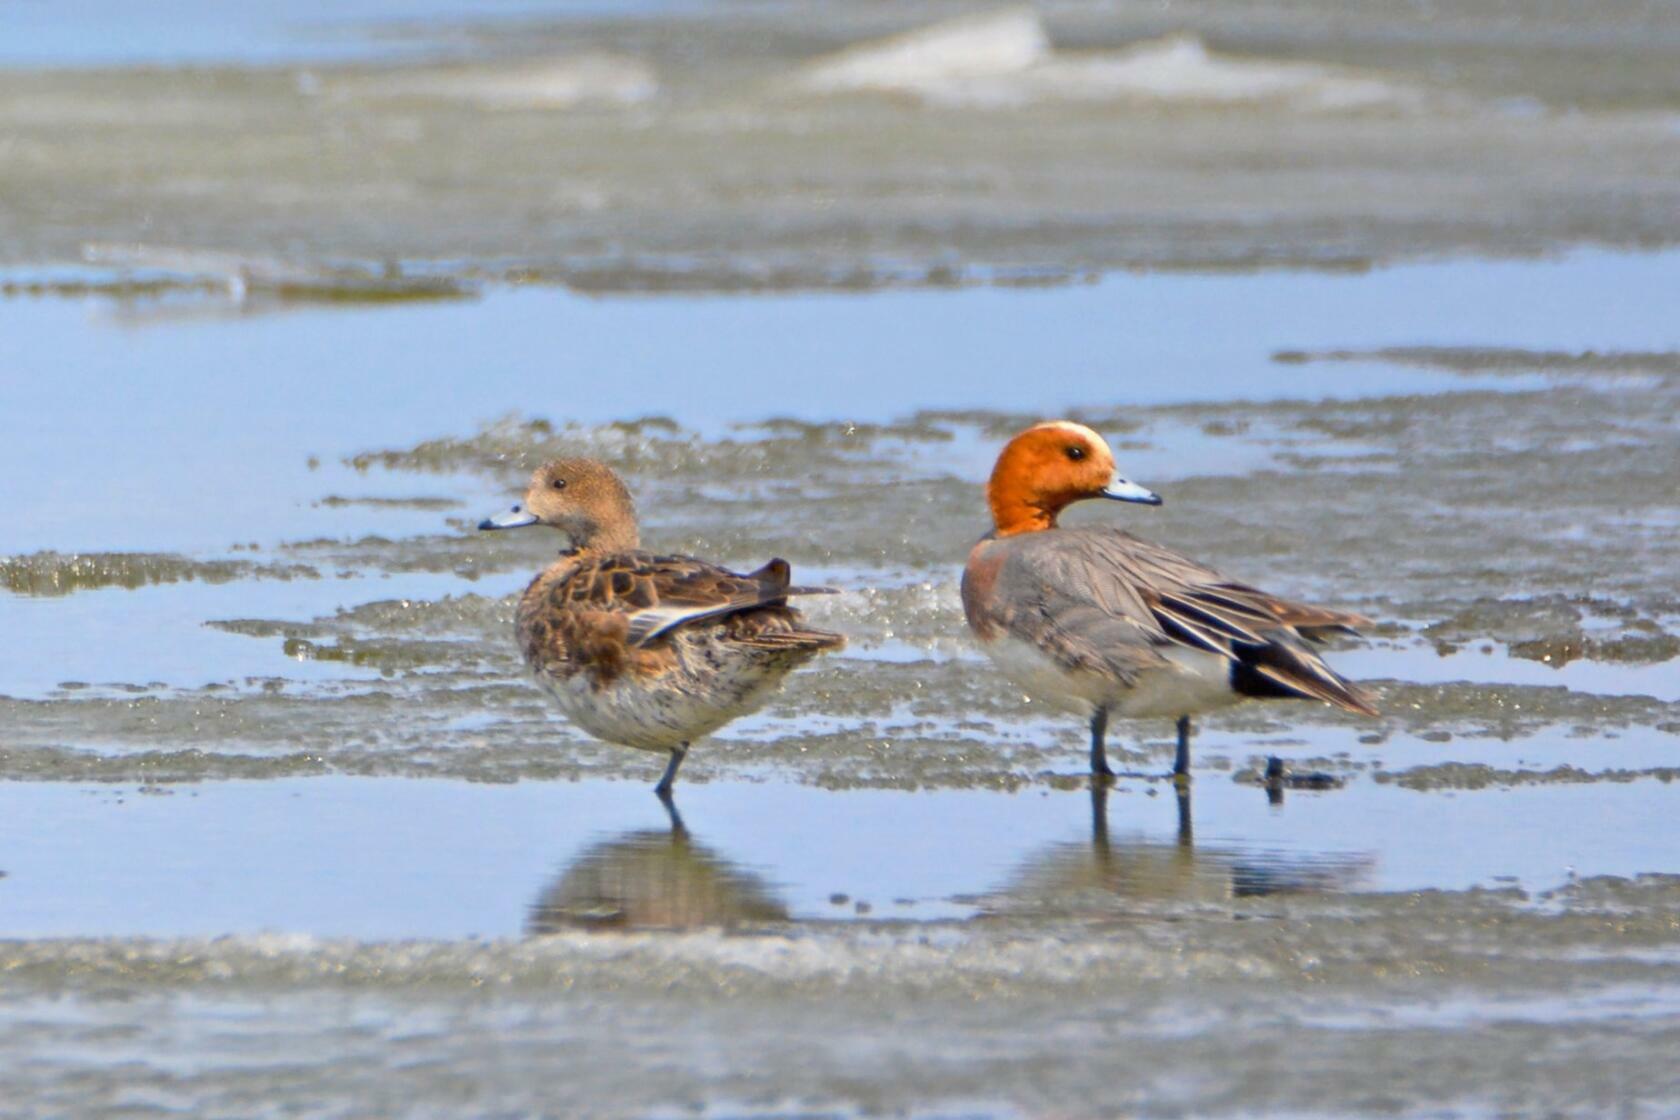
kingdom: Animalia
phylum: Chordata
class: Aves
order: Anseriformes
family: Anatidae
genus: Mareca
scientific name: Mareca penelope
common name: Eurasian wigeon
